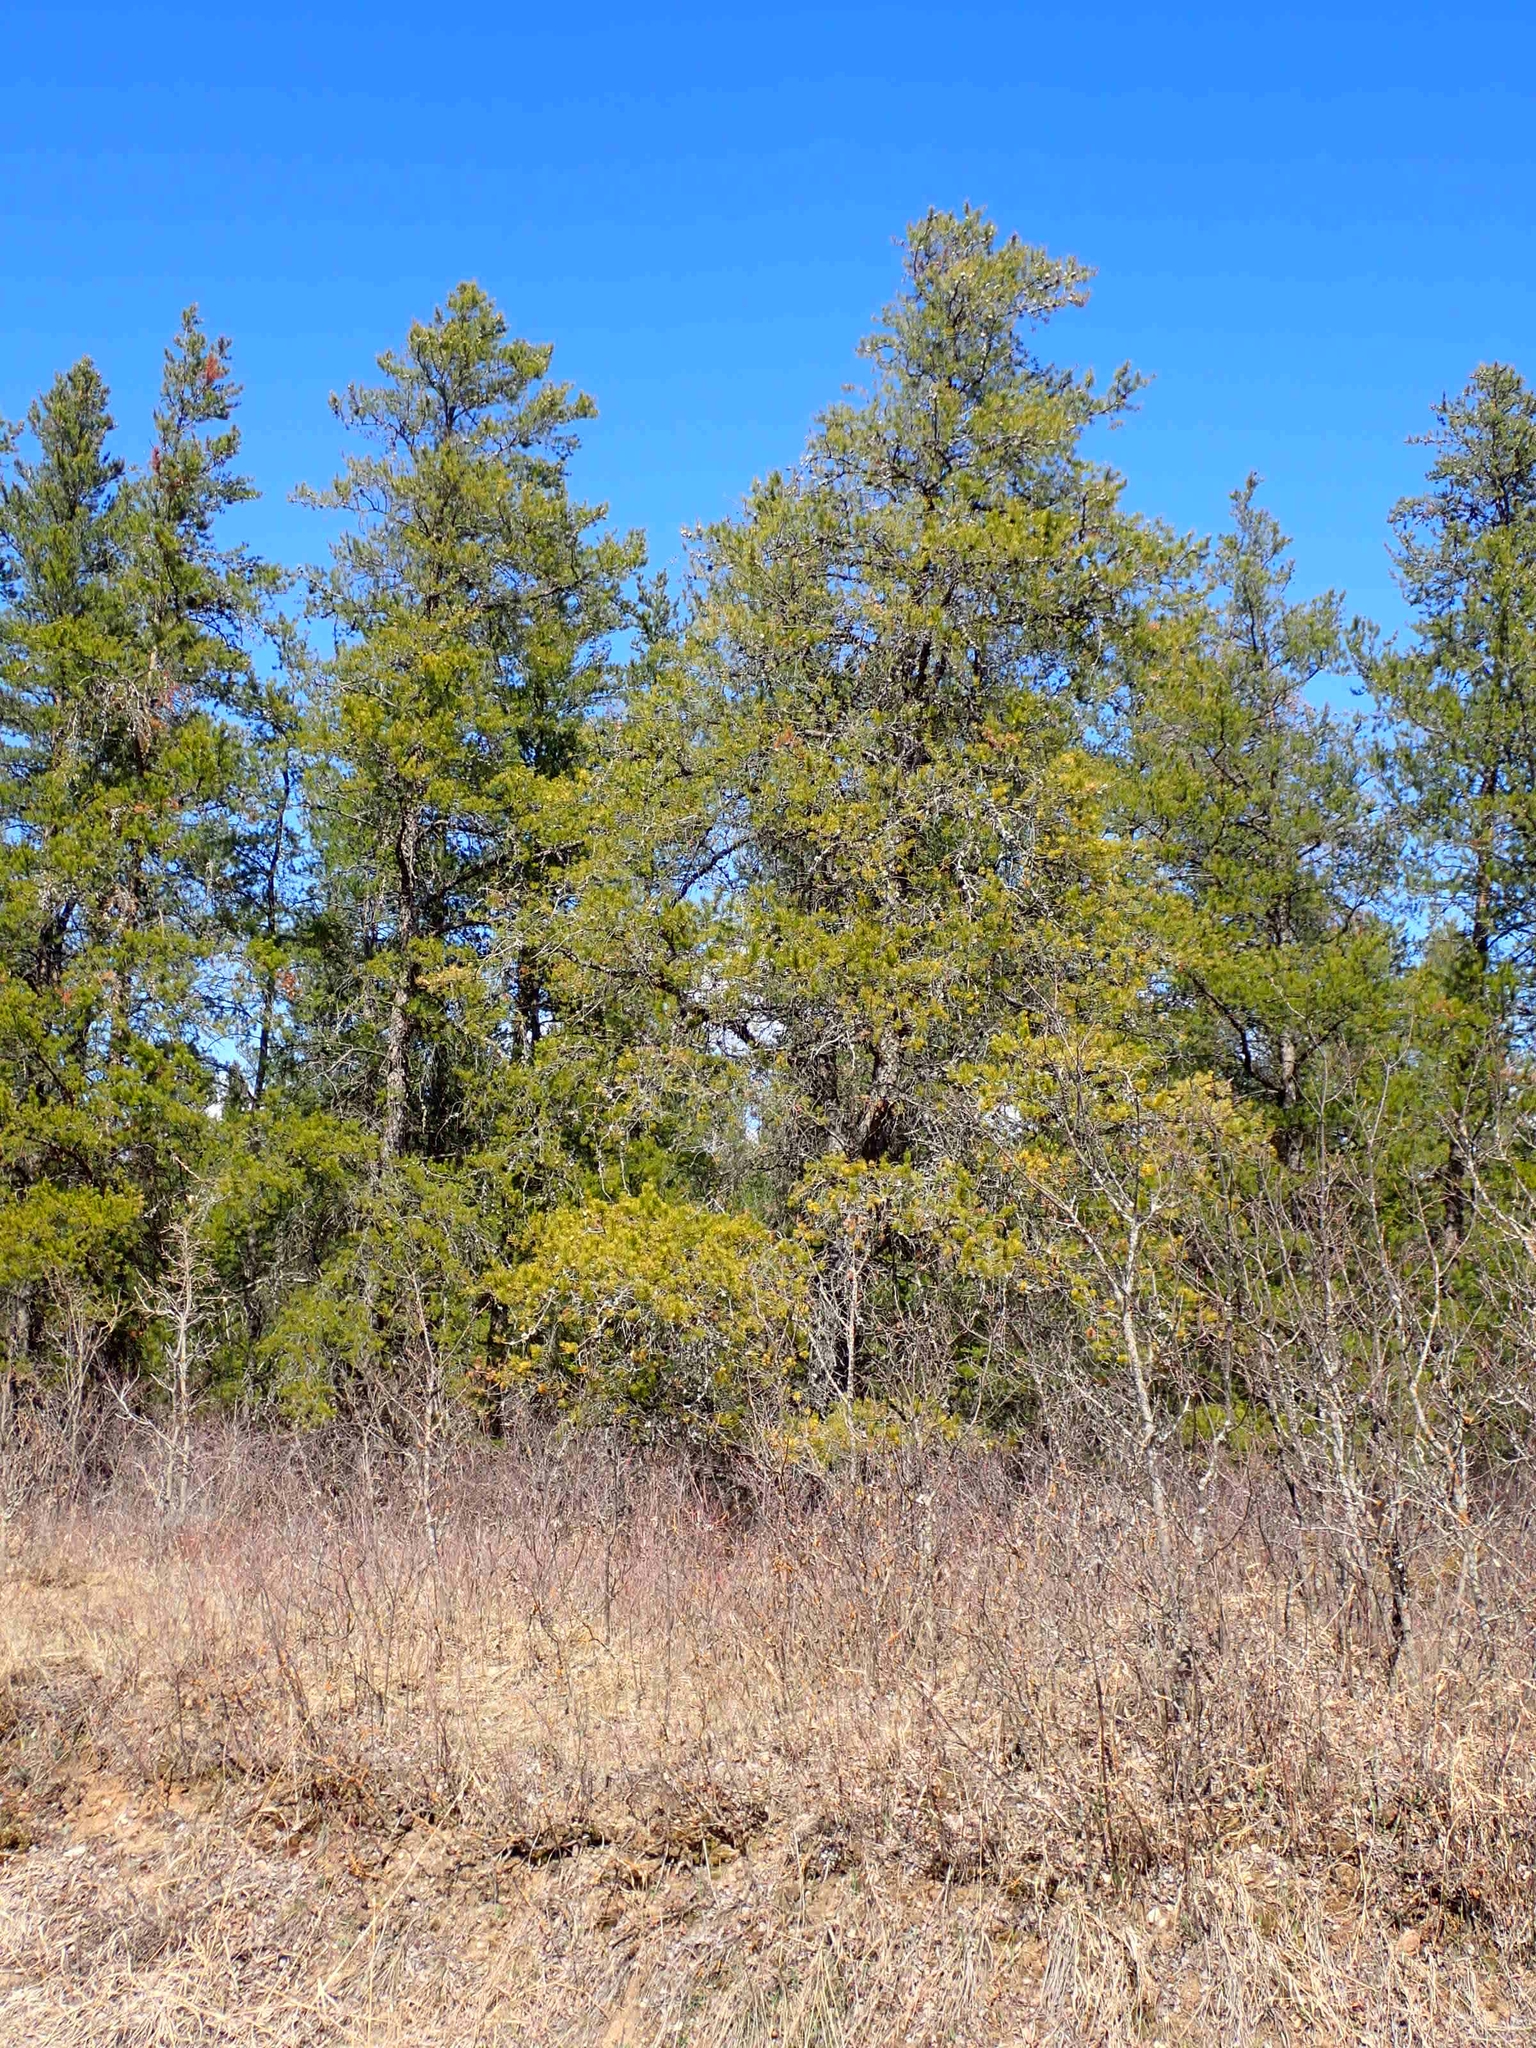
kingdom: Plantae
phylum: Tracheophyta
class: Pinopsida
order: Pinales
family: Pinaceae
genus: Pinus
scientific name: Pinus banksiana
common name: Jack pine
